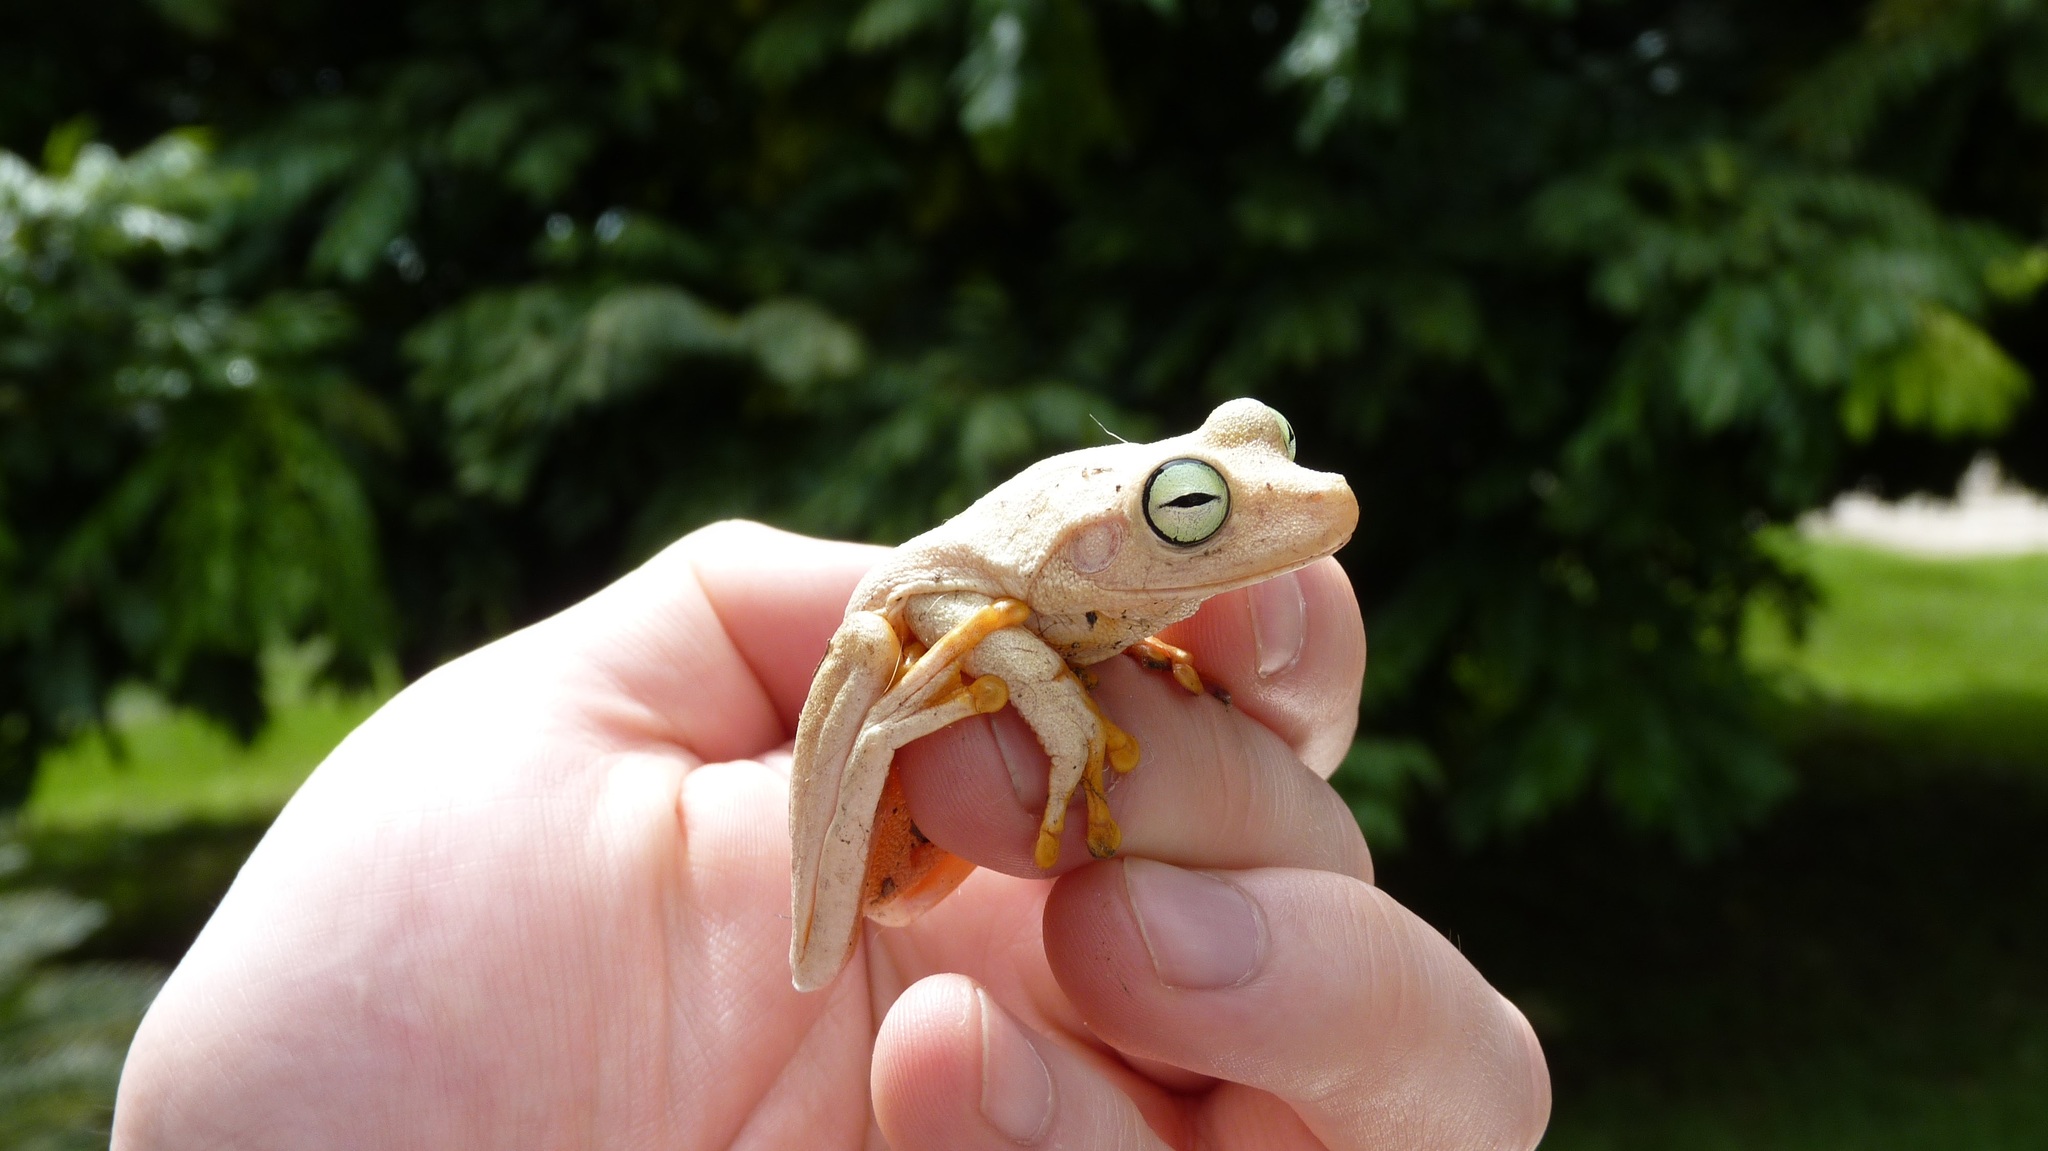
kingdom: Animalia
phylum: Chordata
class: Amphibia
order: Anura
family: Hylidae
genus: Boana
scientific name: Boana platanera
